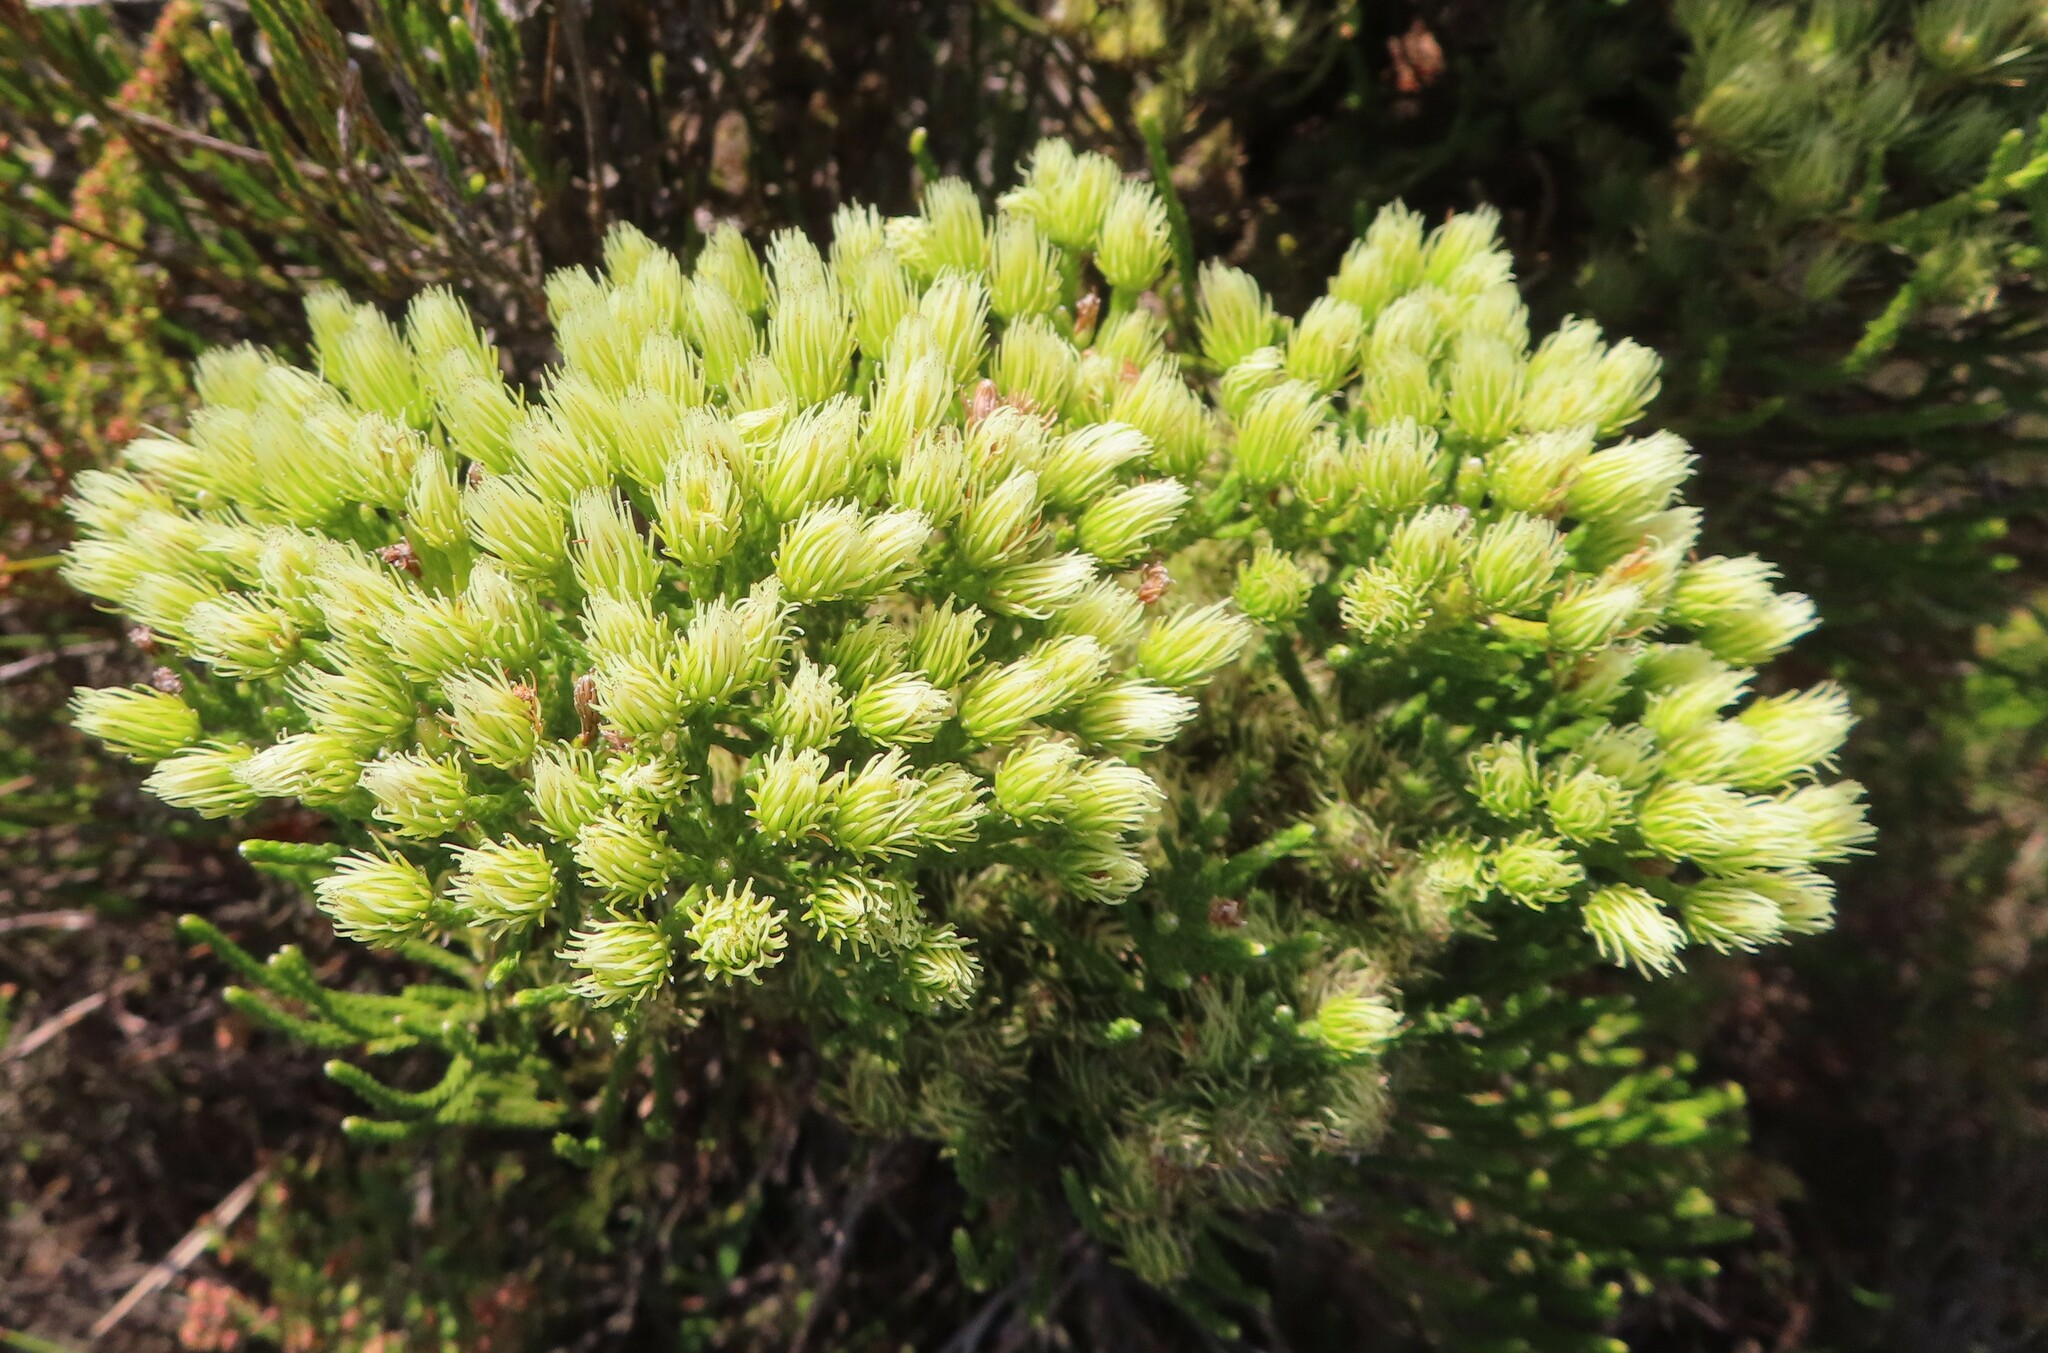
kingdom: Plantae
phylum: Tracheophyta
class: Magnoliopsida
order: Bruniales
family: Bruniaceae
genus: Brunia
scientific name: Brunia paleacea
